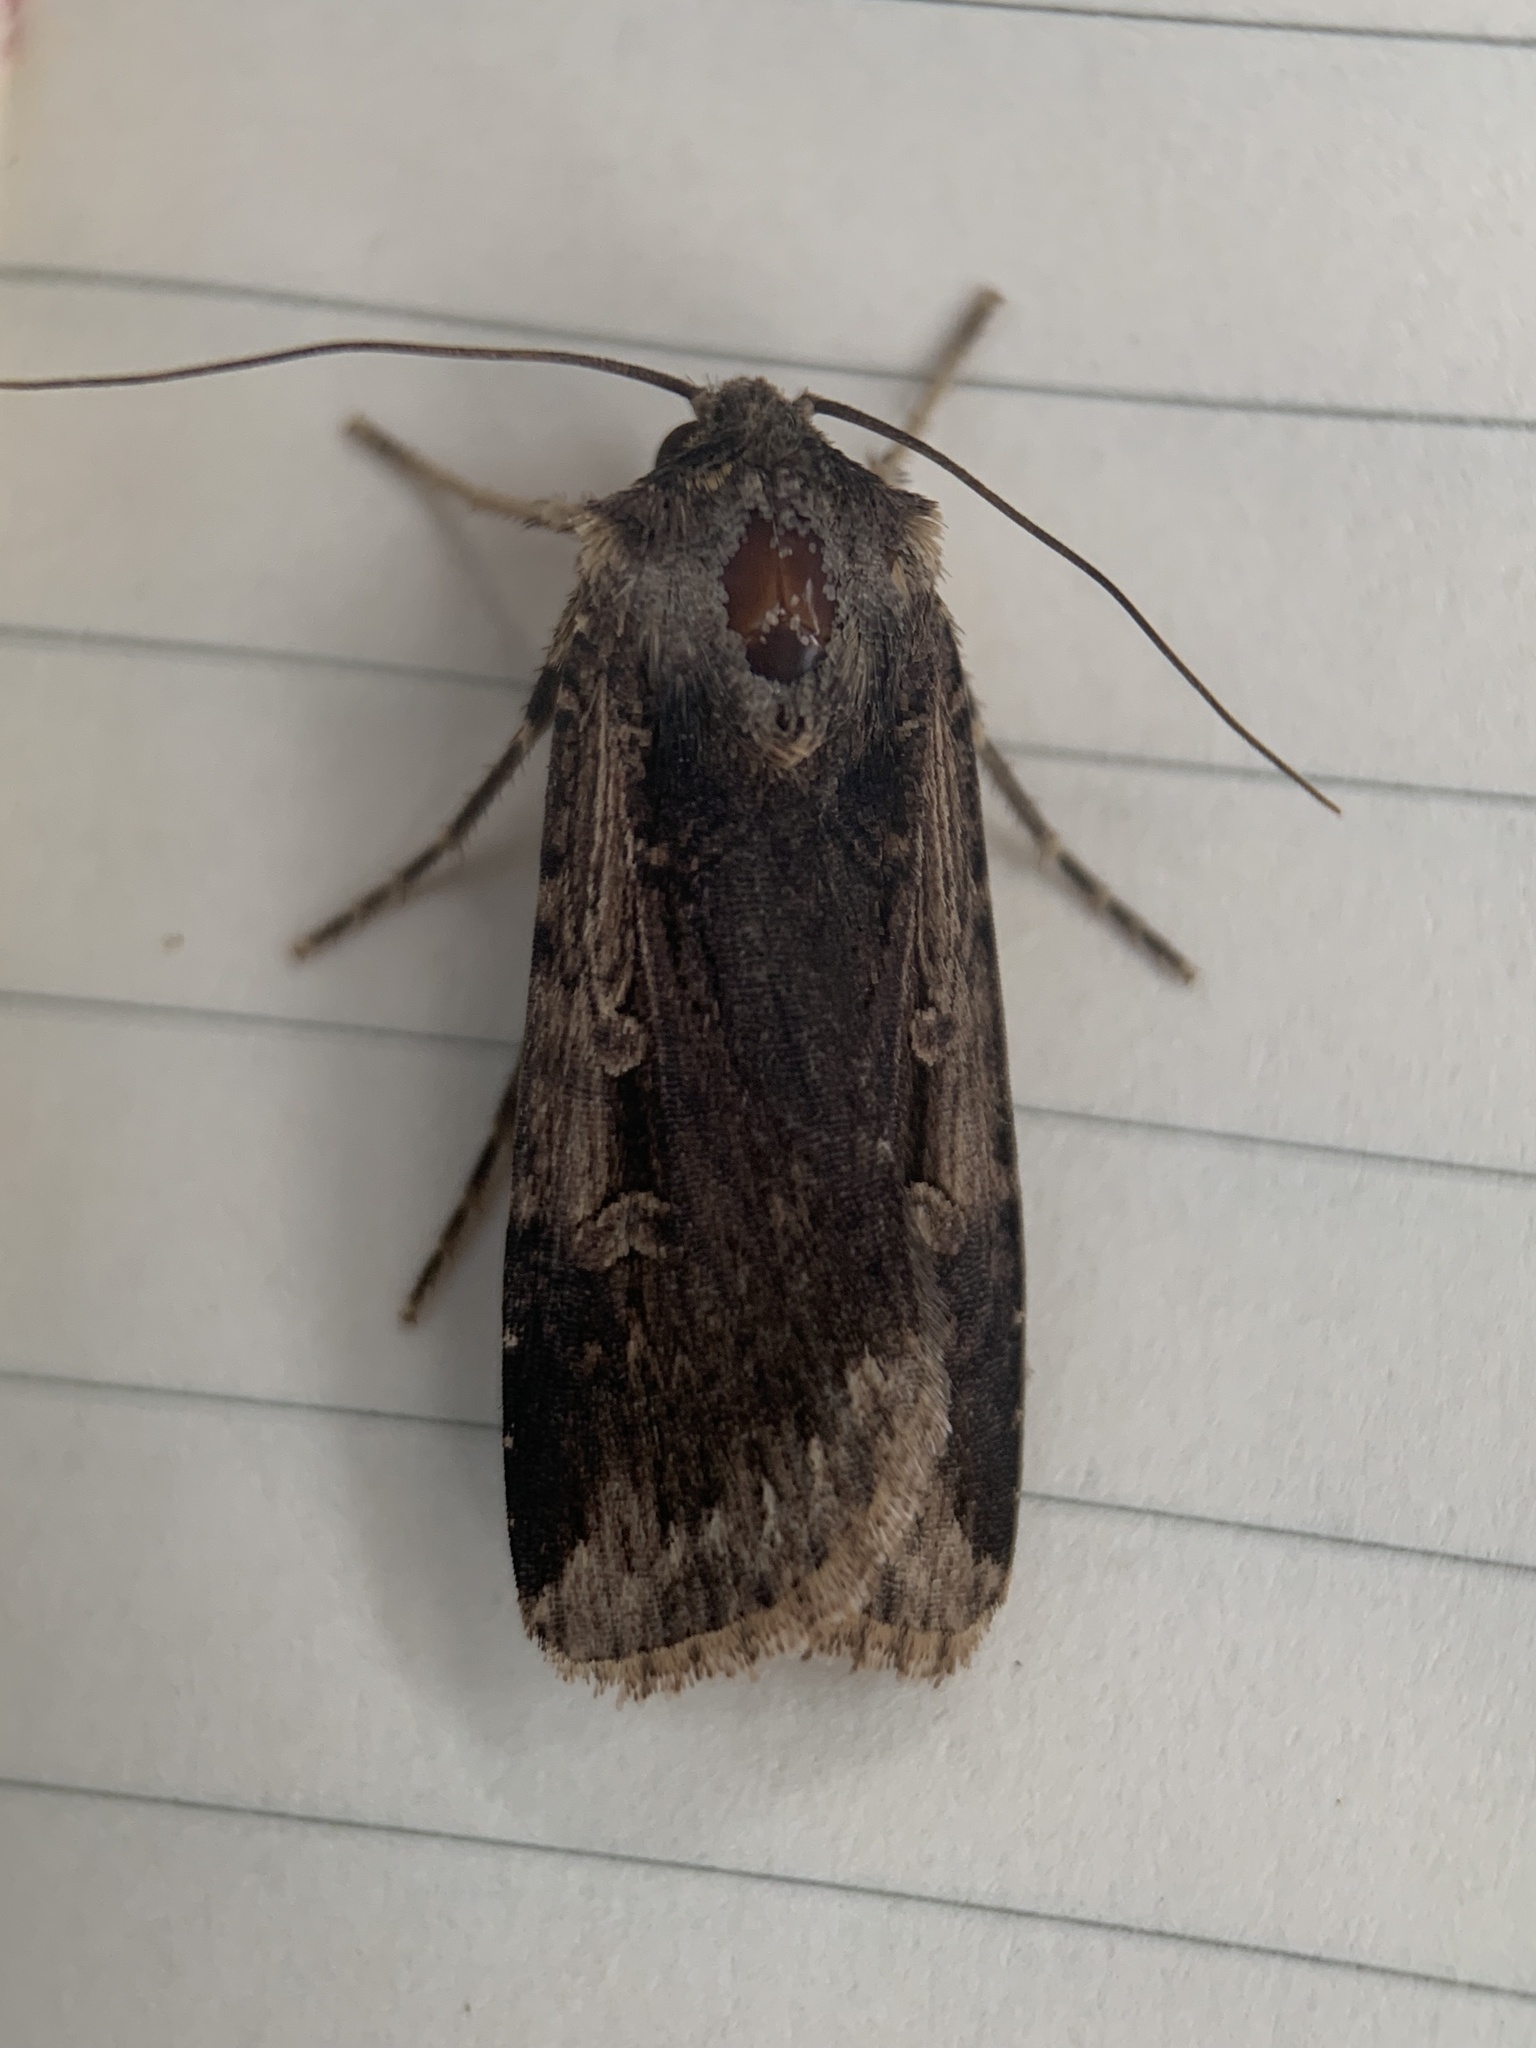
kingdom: Animalia
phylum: Arthropoda
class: Insecta
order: Lepidoptera
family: Noctuidae
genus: Feltia
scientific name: Feltia subterranea
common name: Granulate cutworm
